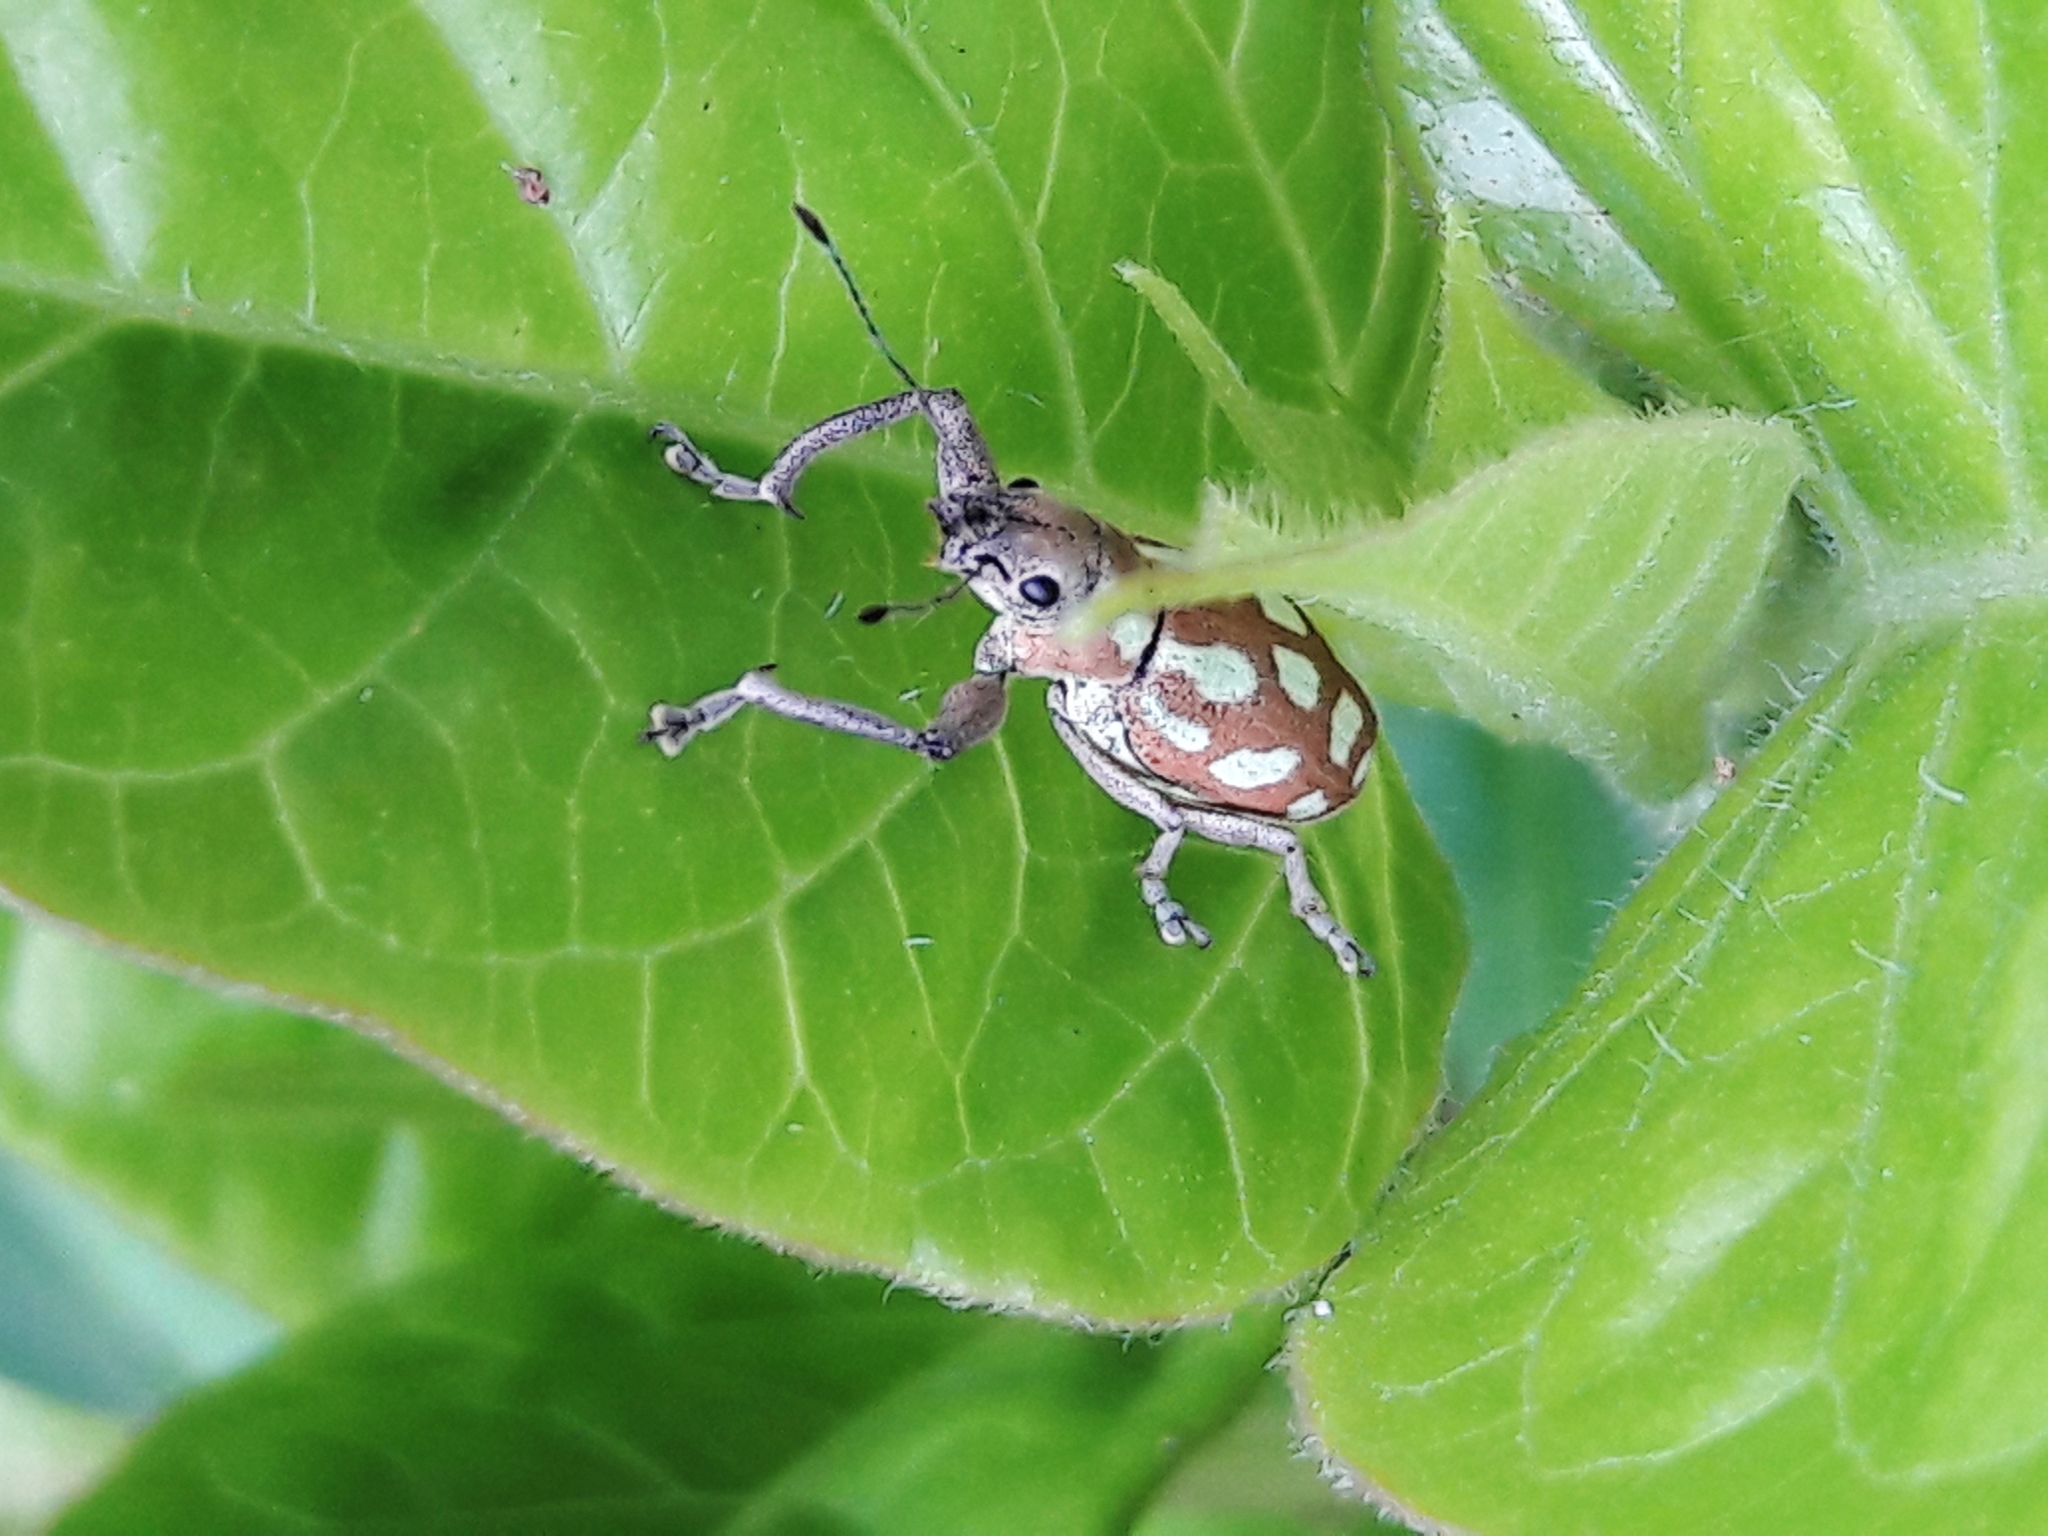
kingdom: Animalia
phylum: Arthropoda
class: Insecta
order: Coleoptera
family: Curculionidae
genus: Naupactus
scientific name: Naupactus bellus
